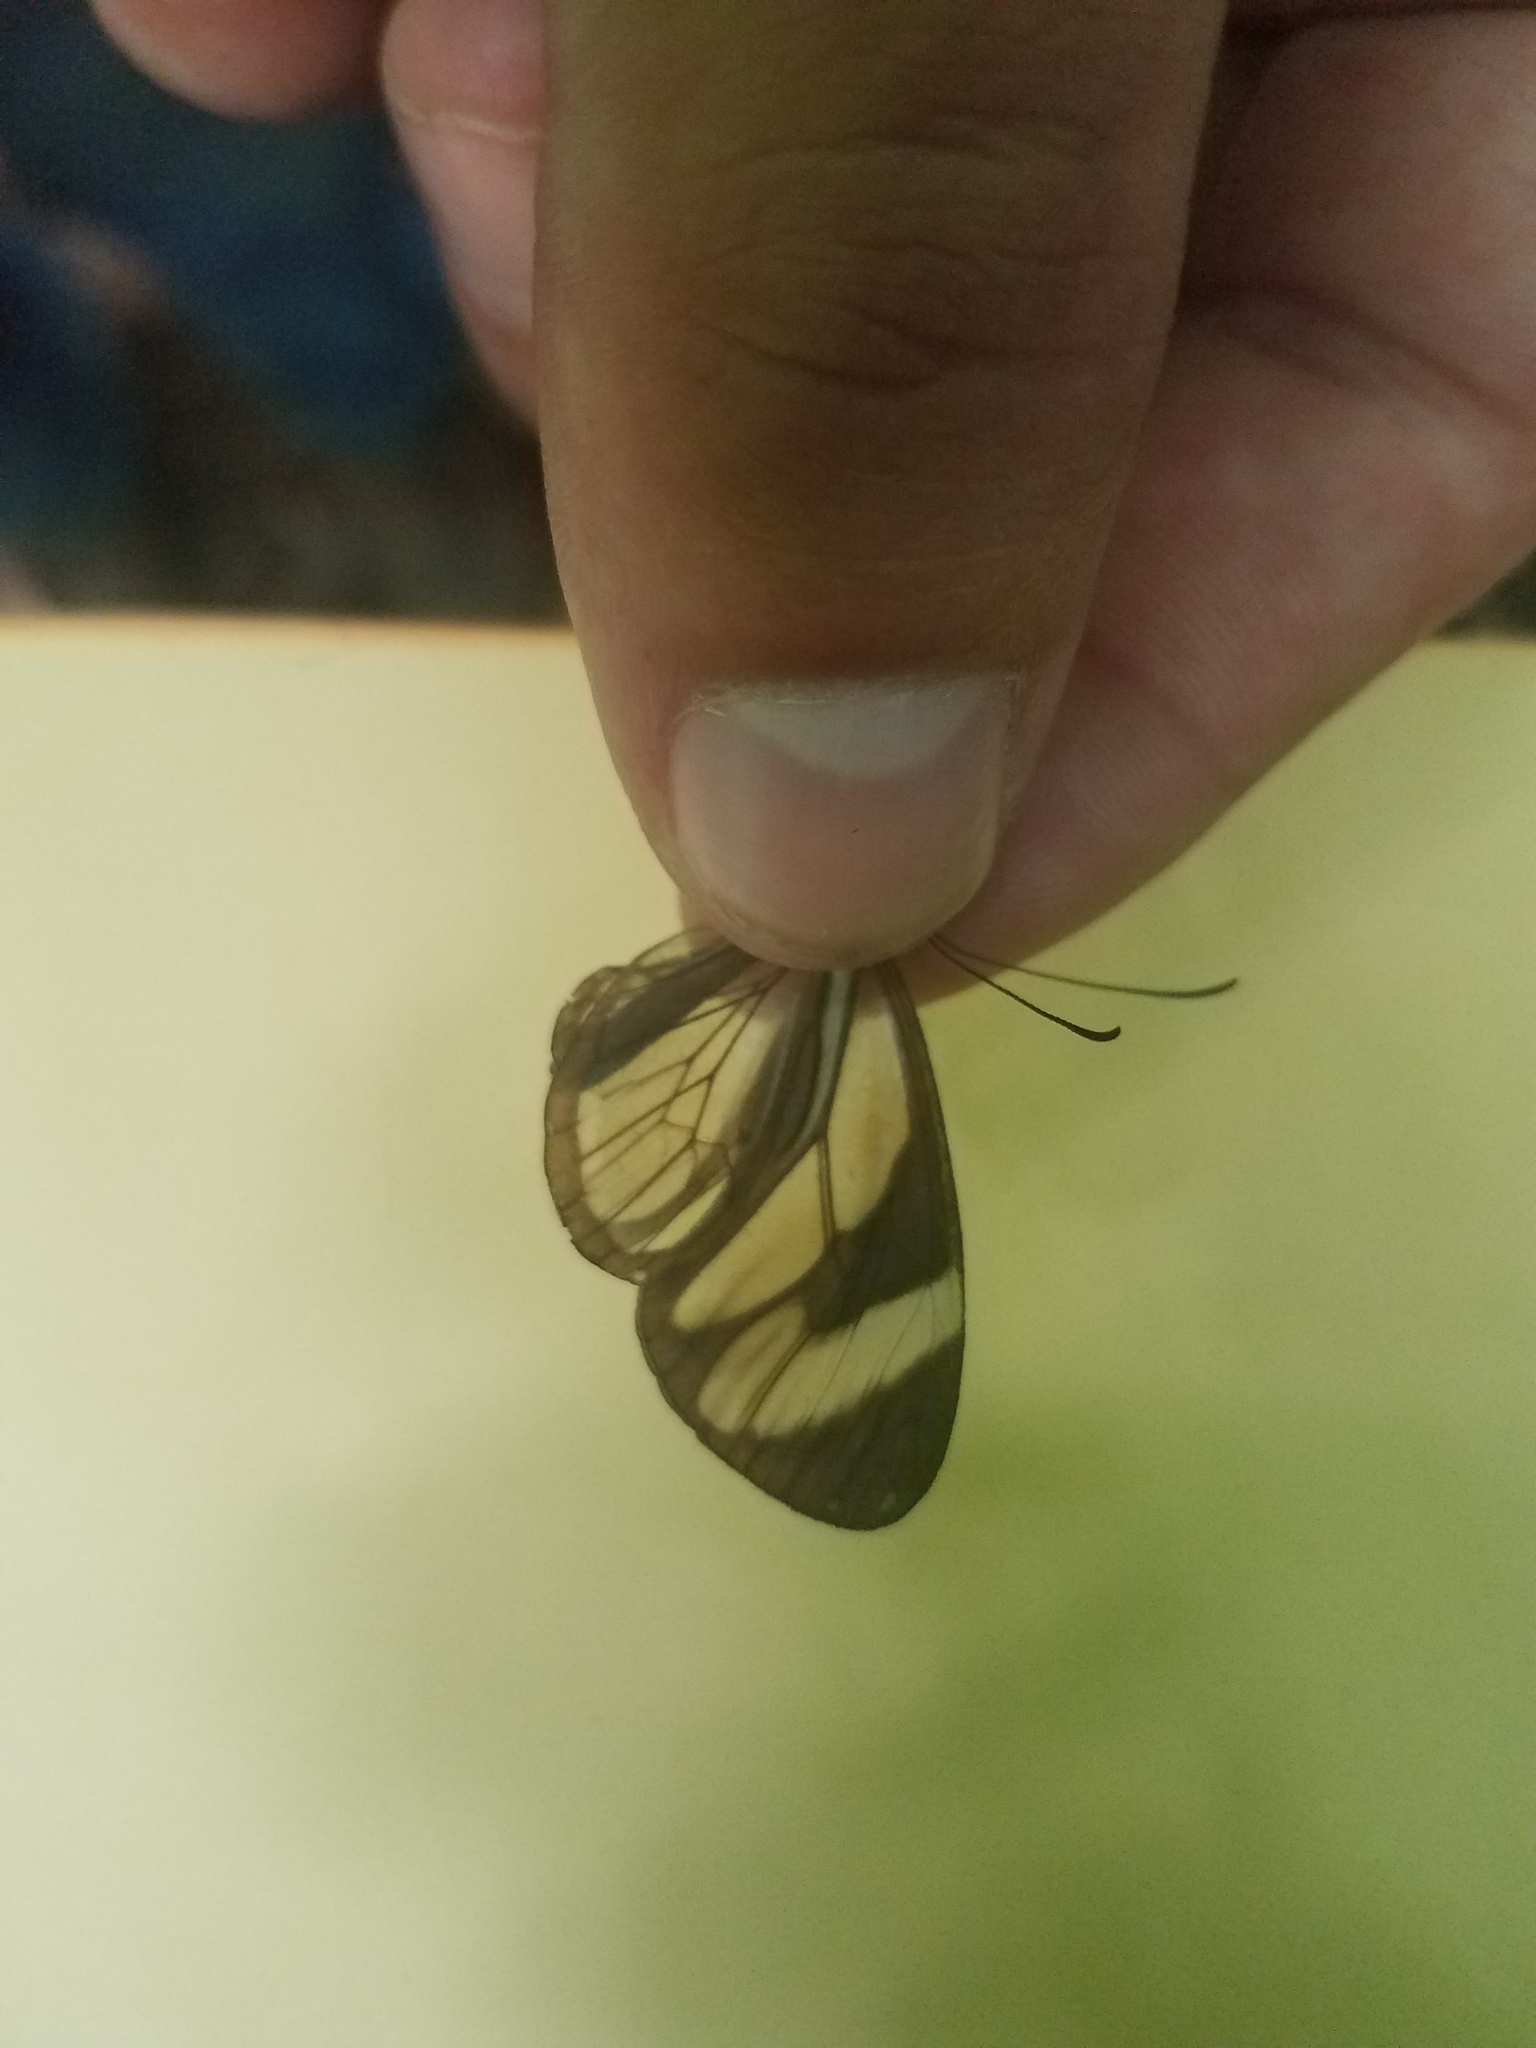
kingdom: Animalia
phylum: Arthropoda
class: Insecta
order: Lepidoptera
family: Nymphalidae
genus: Ithomia
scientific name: Ithomia patilla
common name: Patilla clearwing
